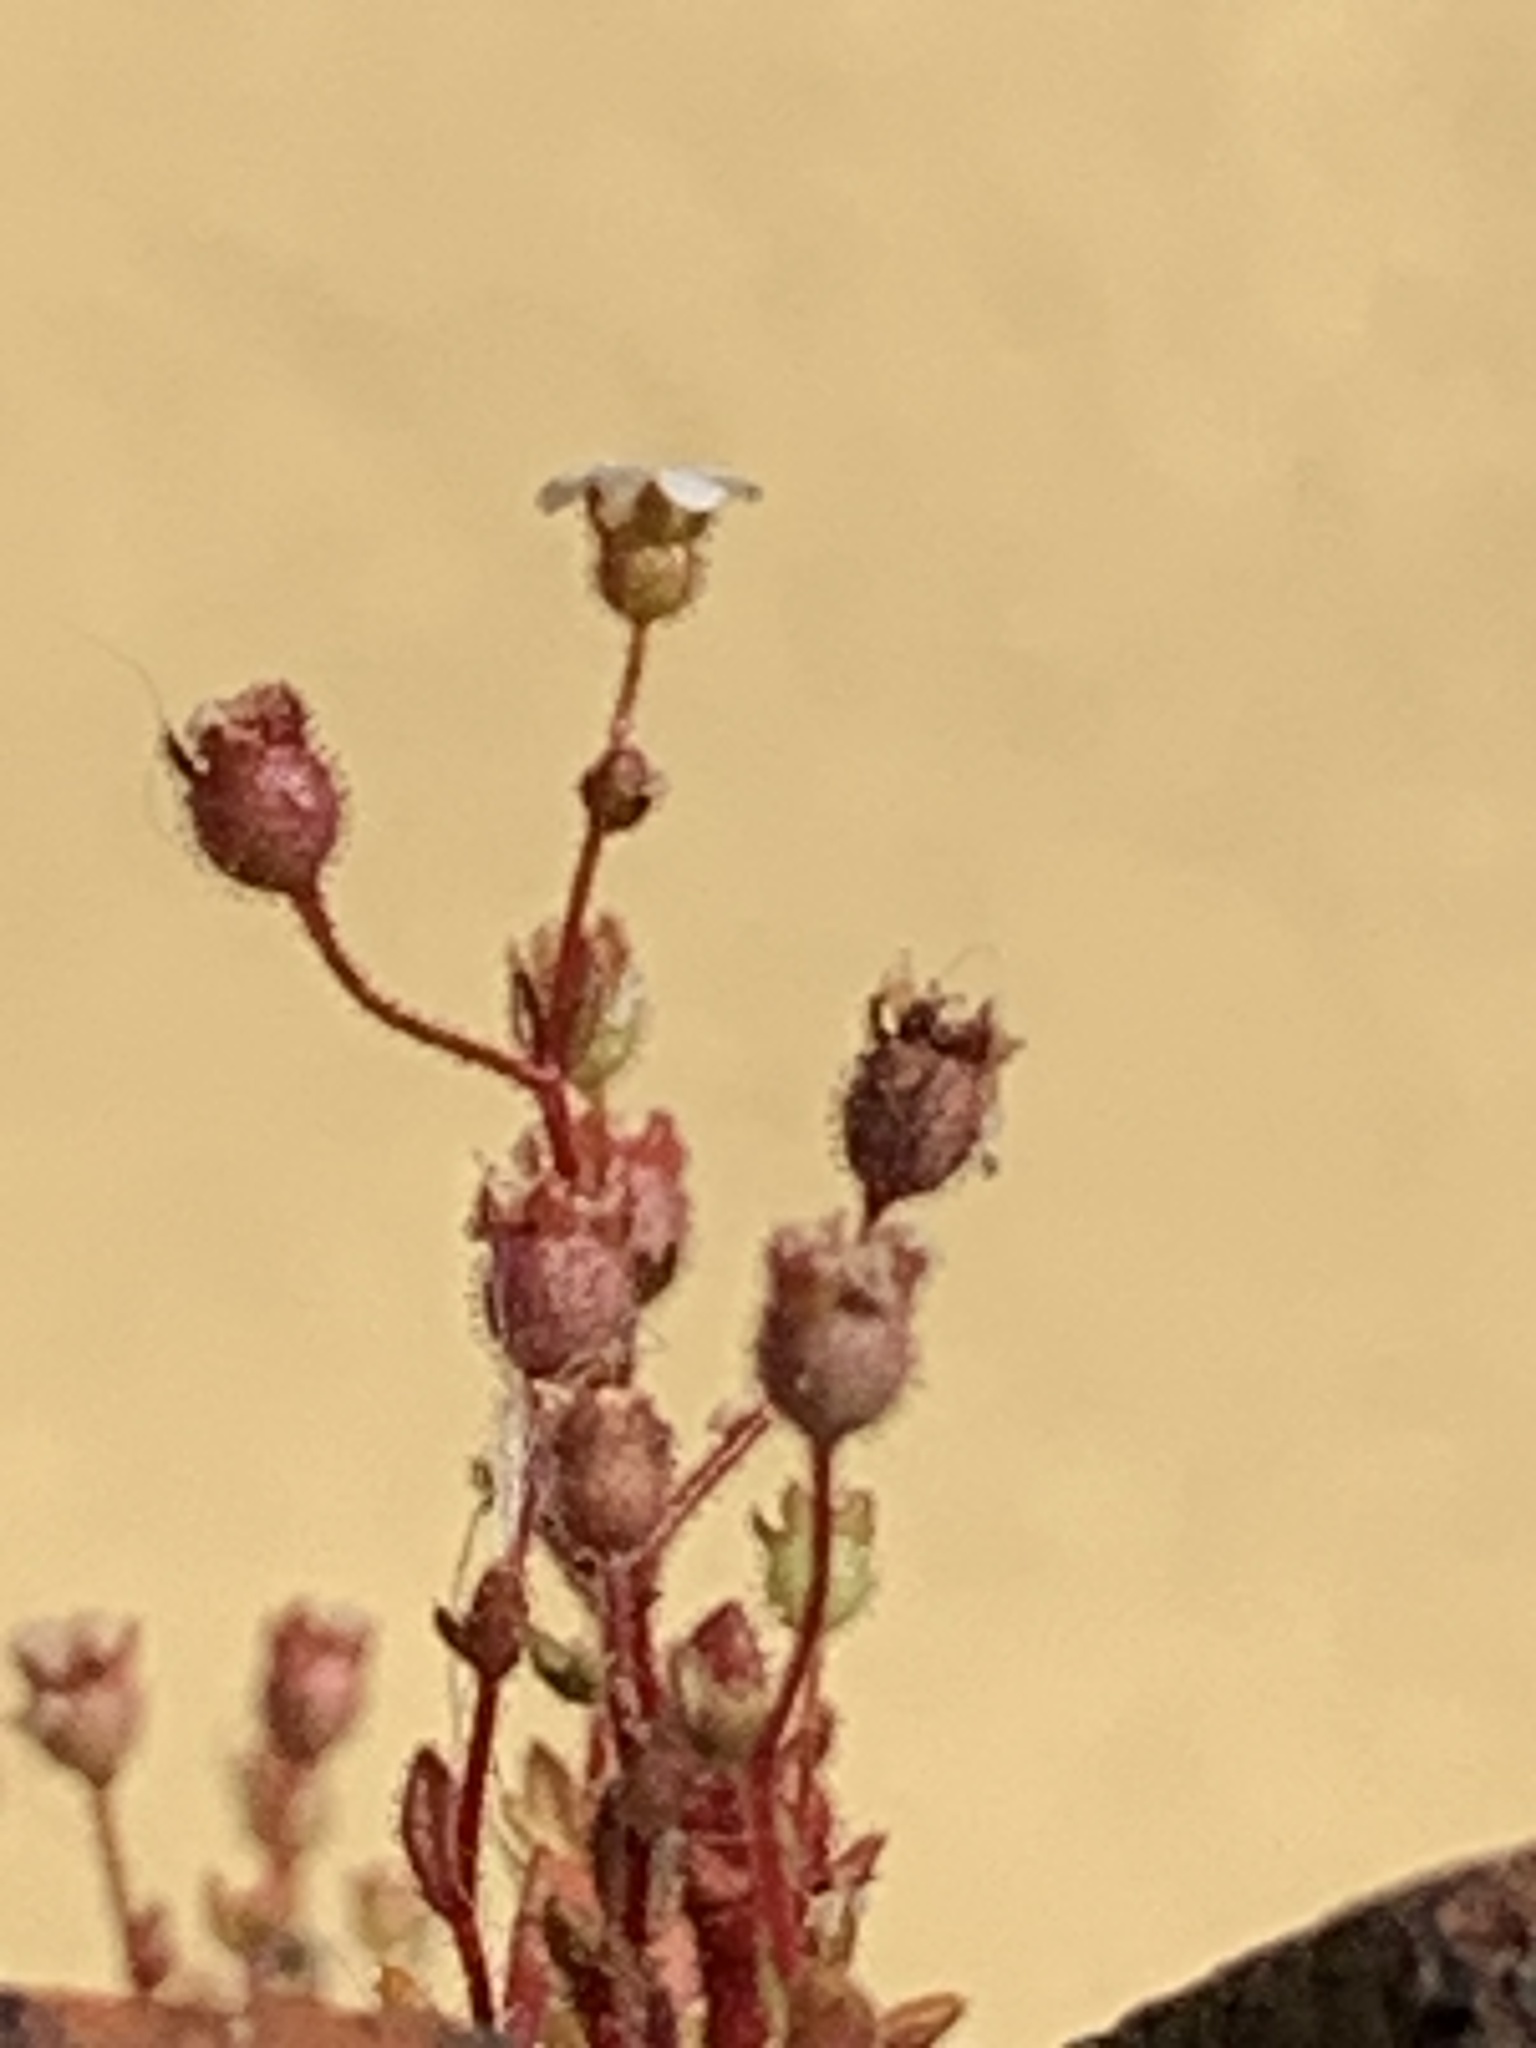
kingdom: Plantae
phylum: Tracheophyta
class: Magnoliopsida
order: Saxifragales
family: Saxifragaceae
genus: Saxifraga
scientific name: Saxifraga tridactylites
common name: Rue-leaved saxifrage
